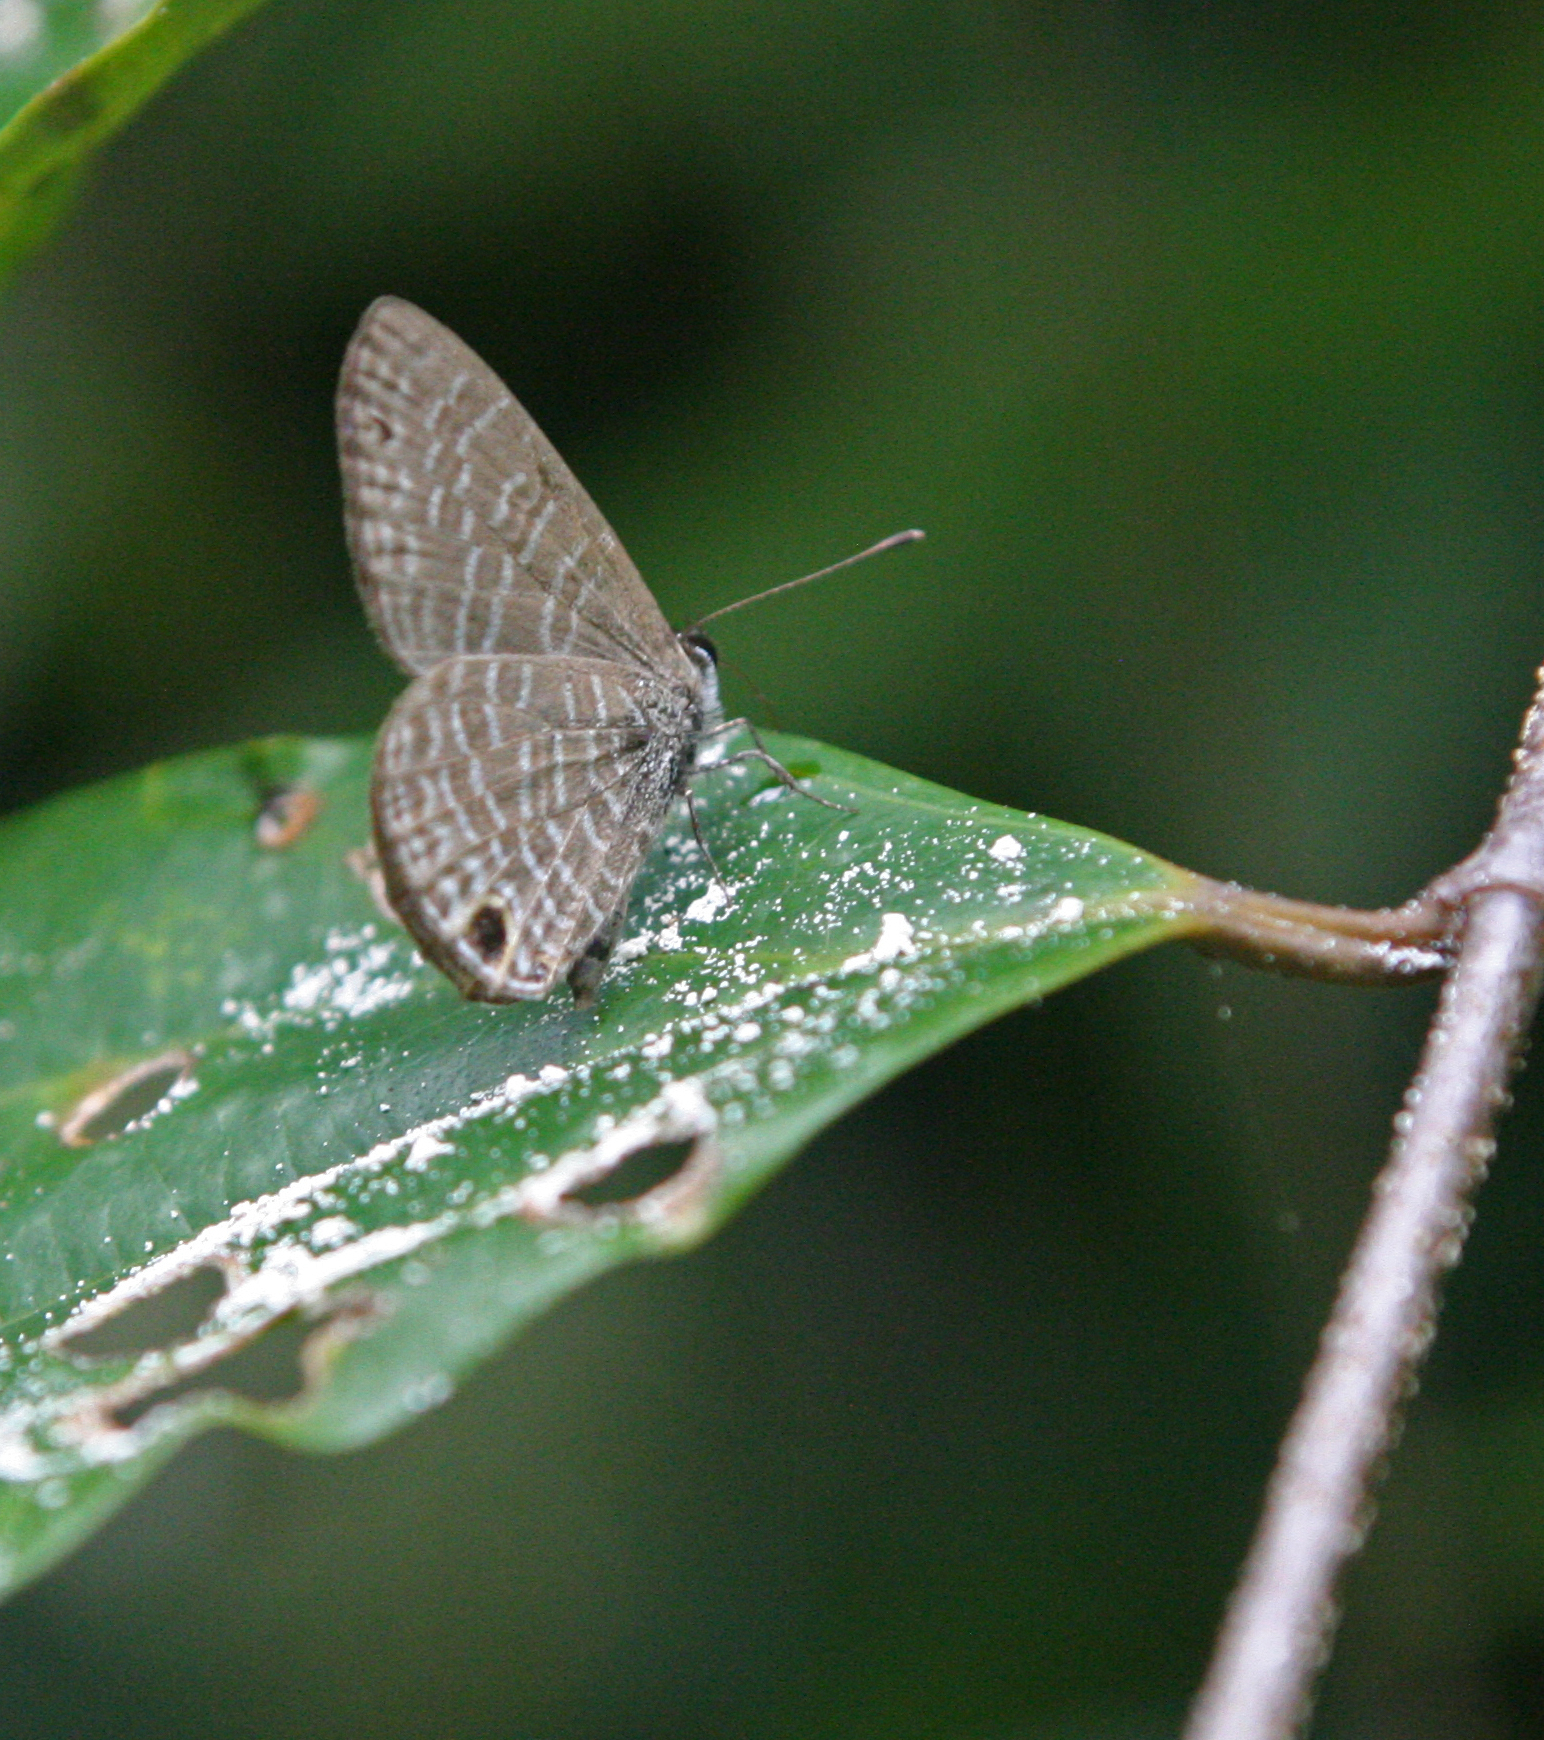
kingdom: Animalia
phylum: Arthropoda
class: Insecta
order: Lepidoptera
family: Lycaenidae
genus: Prosotas
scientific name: Prosotas dubiosa
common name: Tailless lineblue
